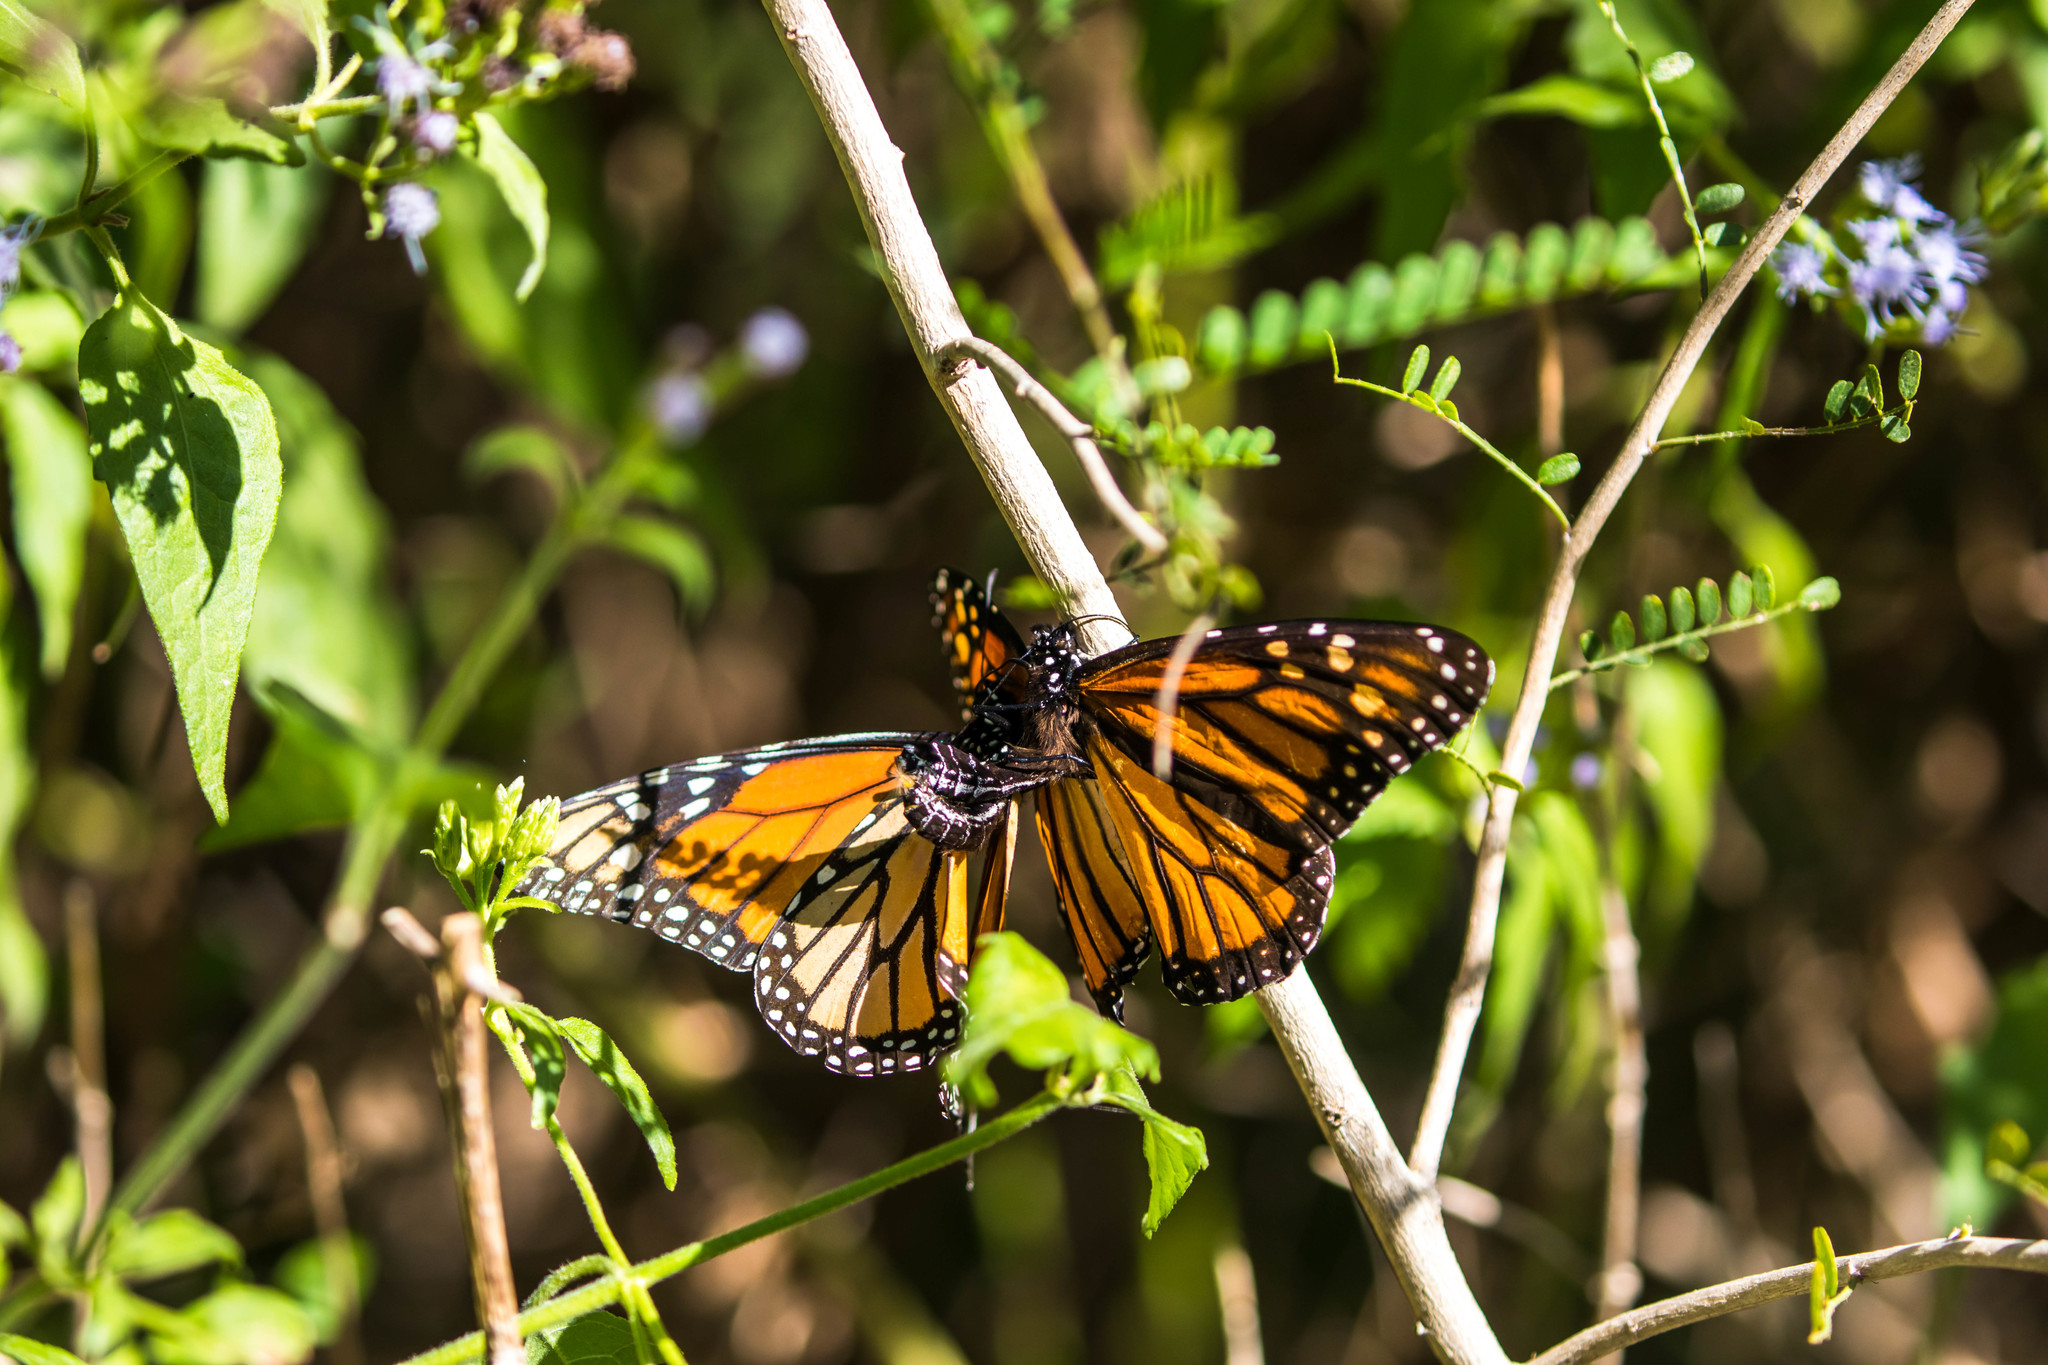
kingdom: Animalia
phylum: Arthropoda
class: Insecta
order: Lepidoptera
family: Nymphalidae
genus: Danaus
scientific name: Danaus plexippus
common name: Monarch
